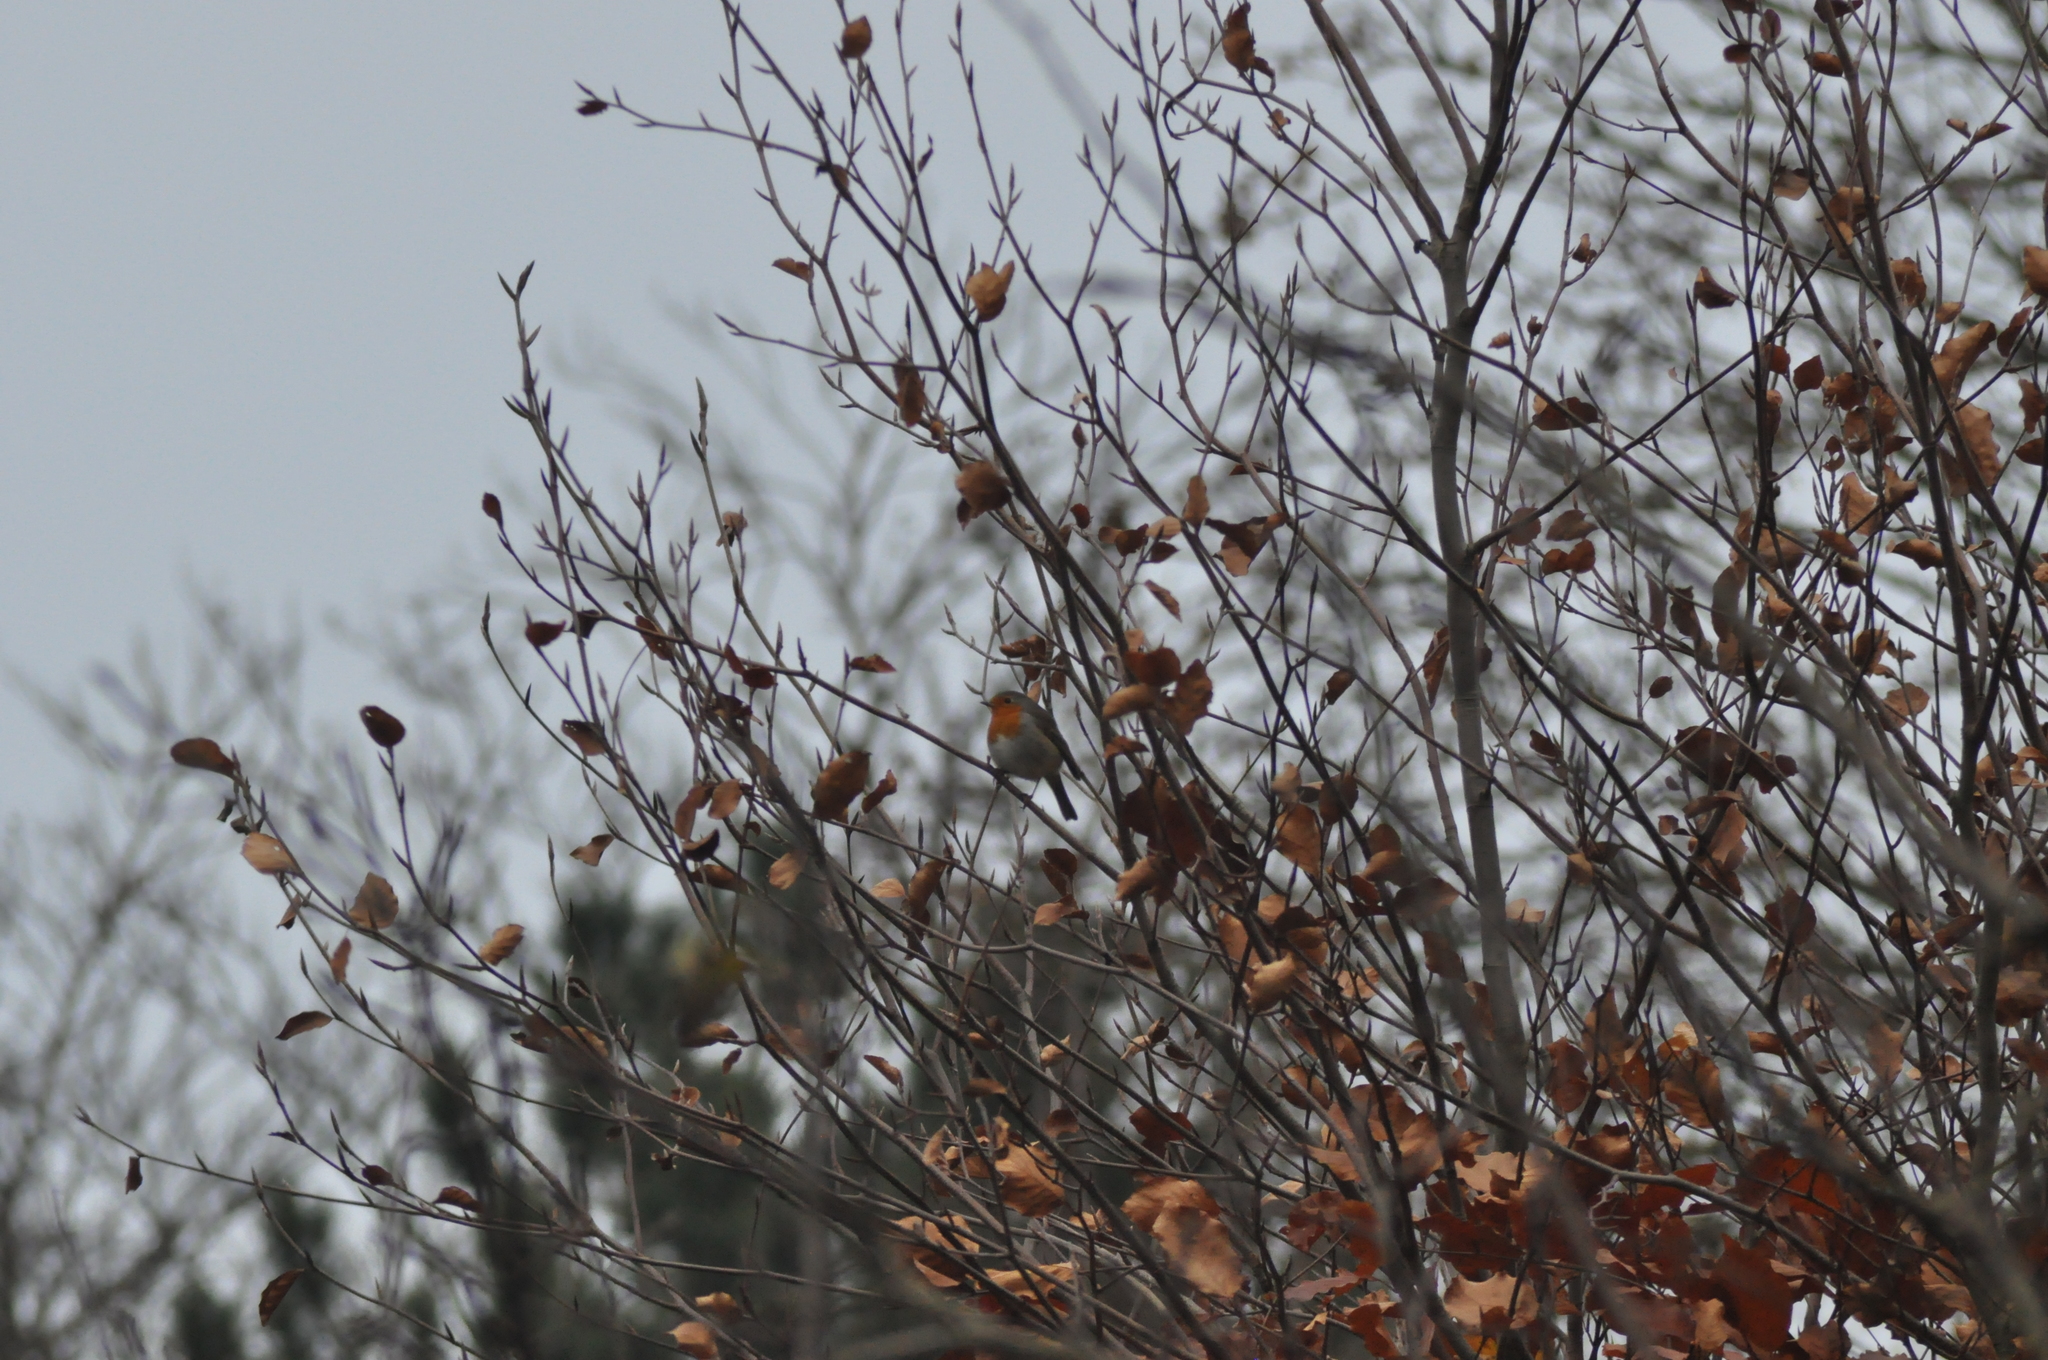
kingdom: Animalia
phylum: Chordata
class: Aves
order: Passeriformes
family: Muscicapidae
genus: Erithacus
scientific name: Erithacus rubecula
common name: European robin
